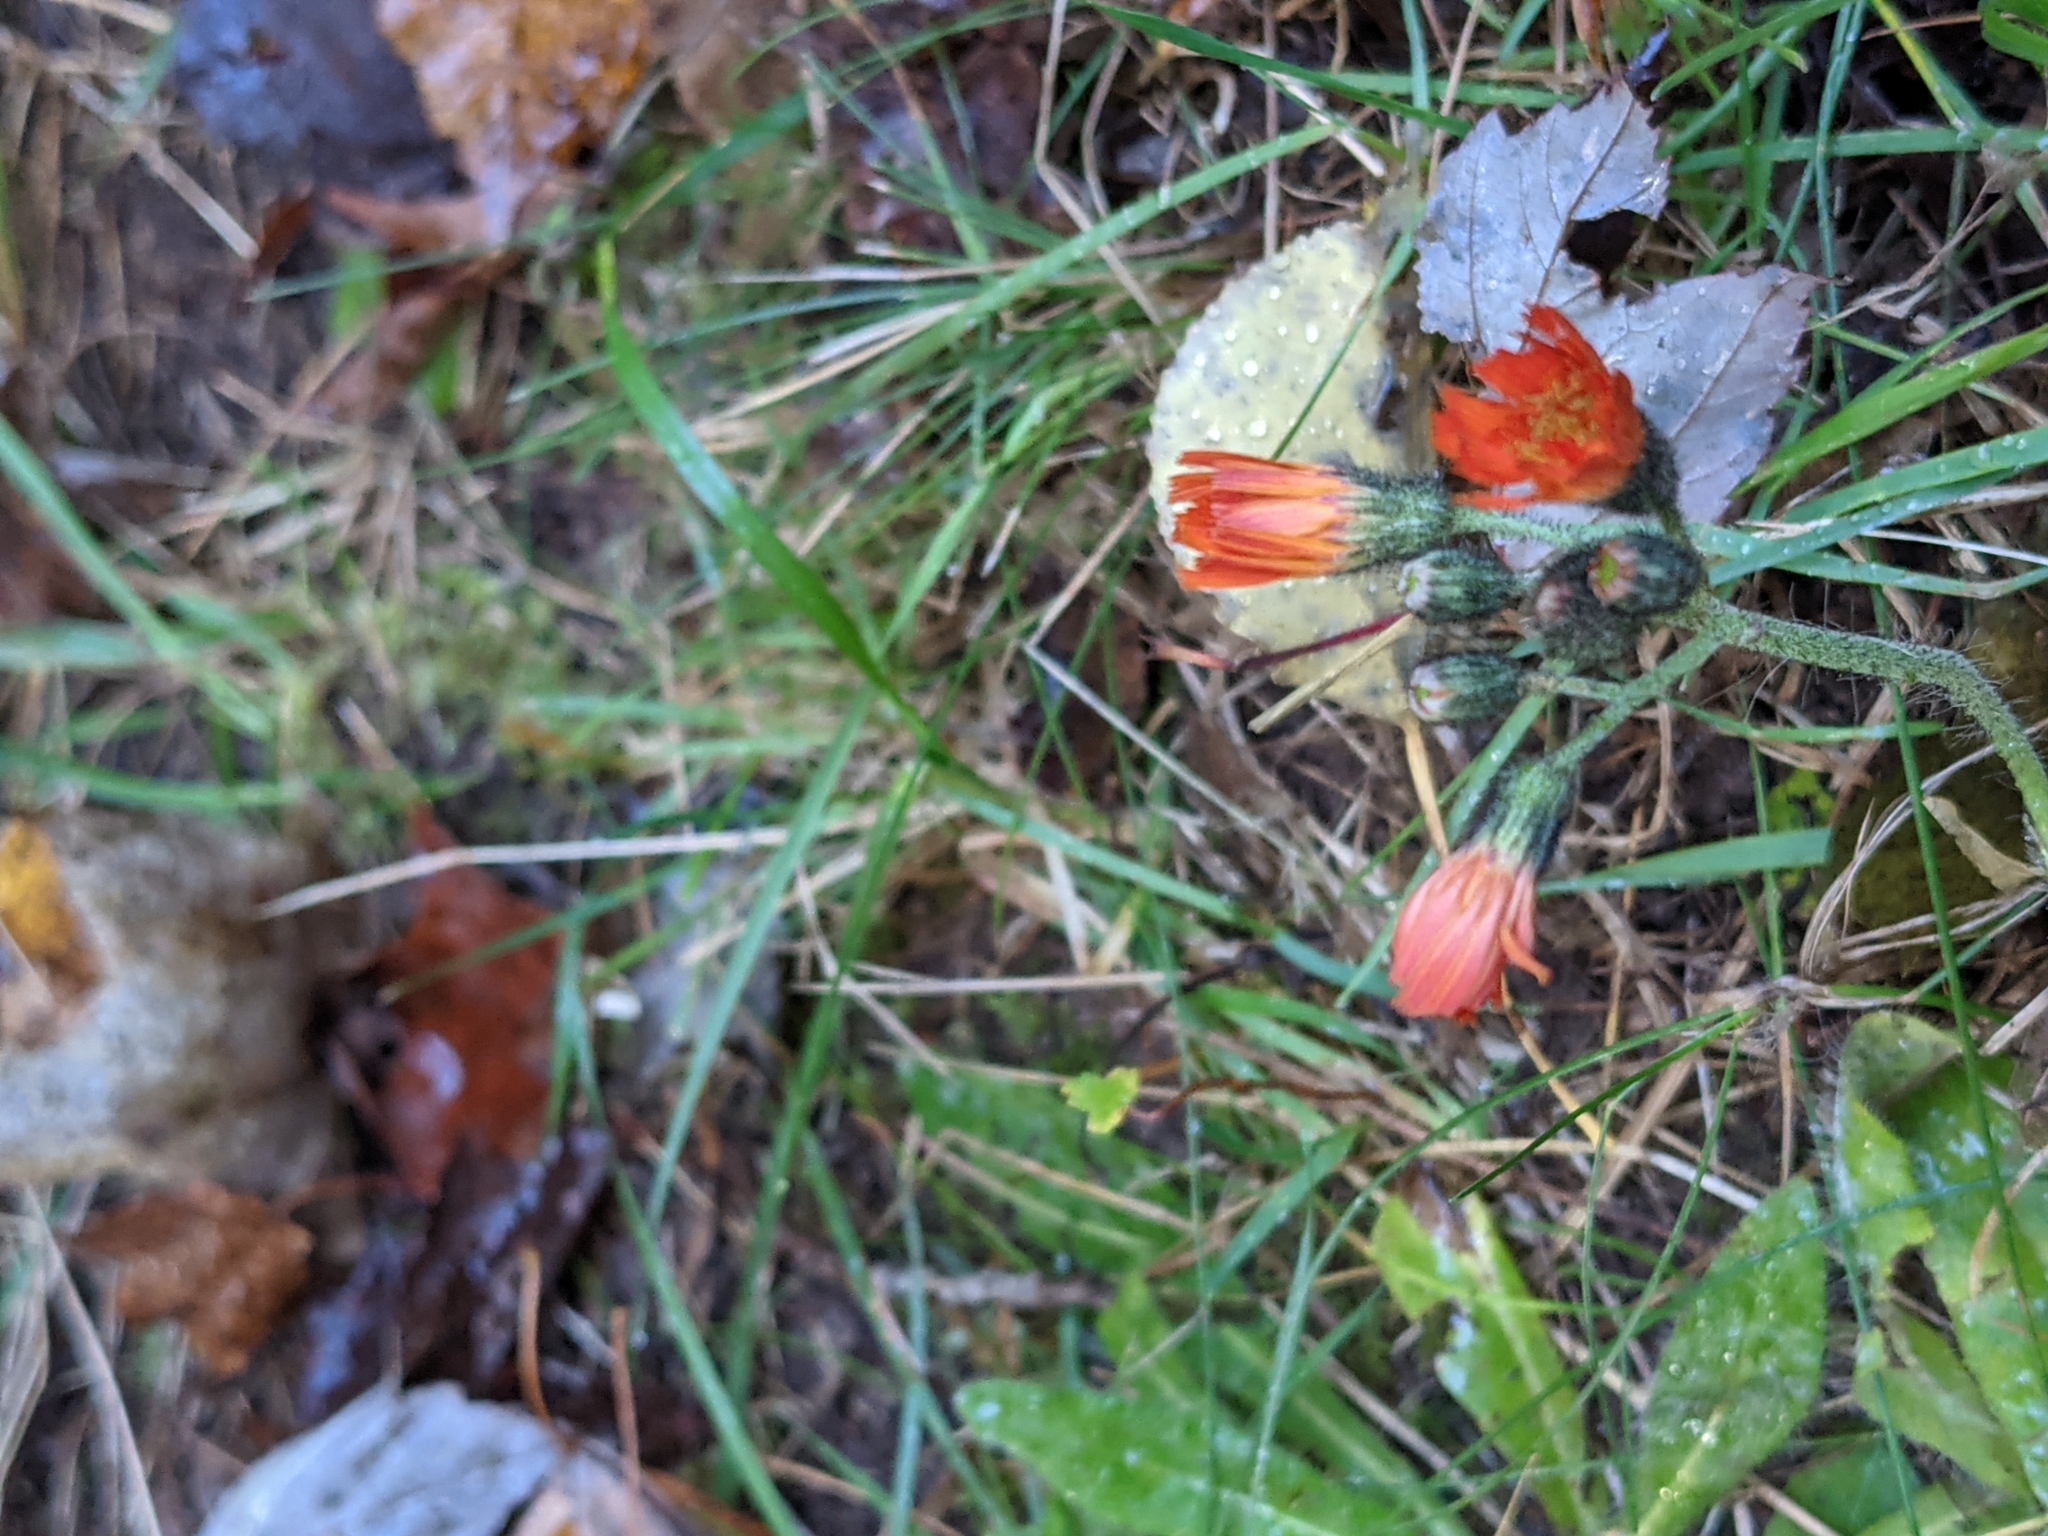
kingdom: Plantae
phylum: Tracheophyta
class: Magnoliopsida
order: Asterales
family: Asteraceae
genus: Pilosella
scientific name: Pilosella aurantiaca
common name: Fox-and-cubs
